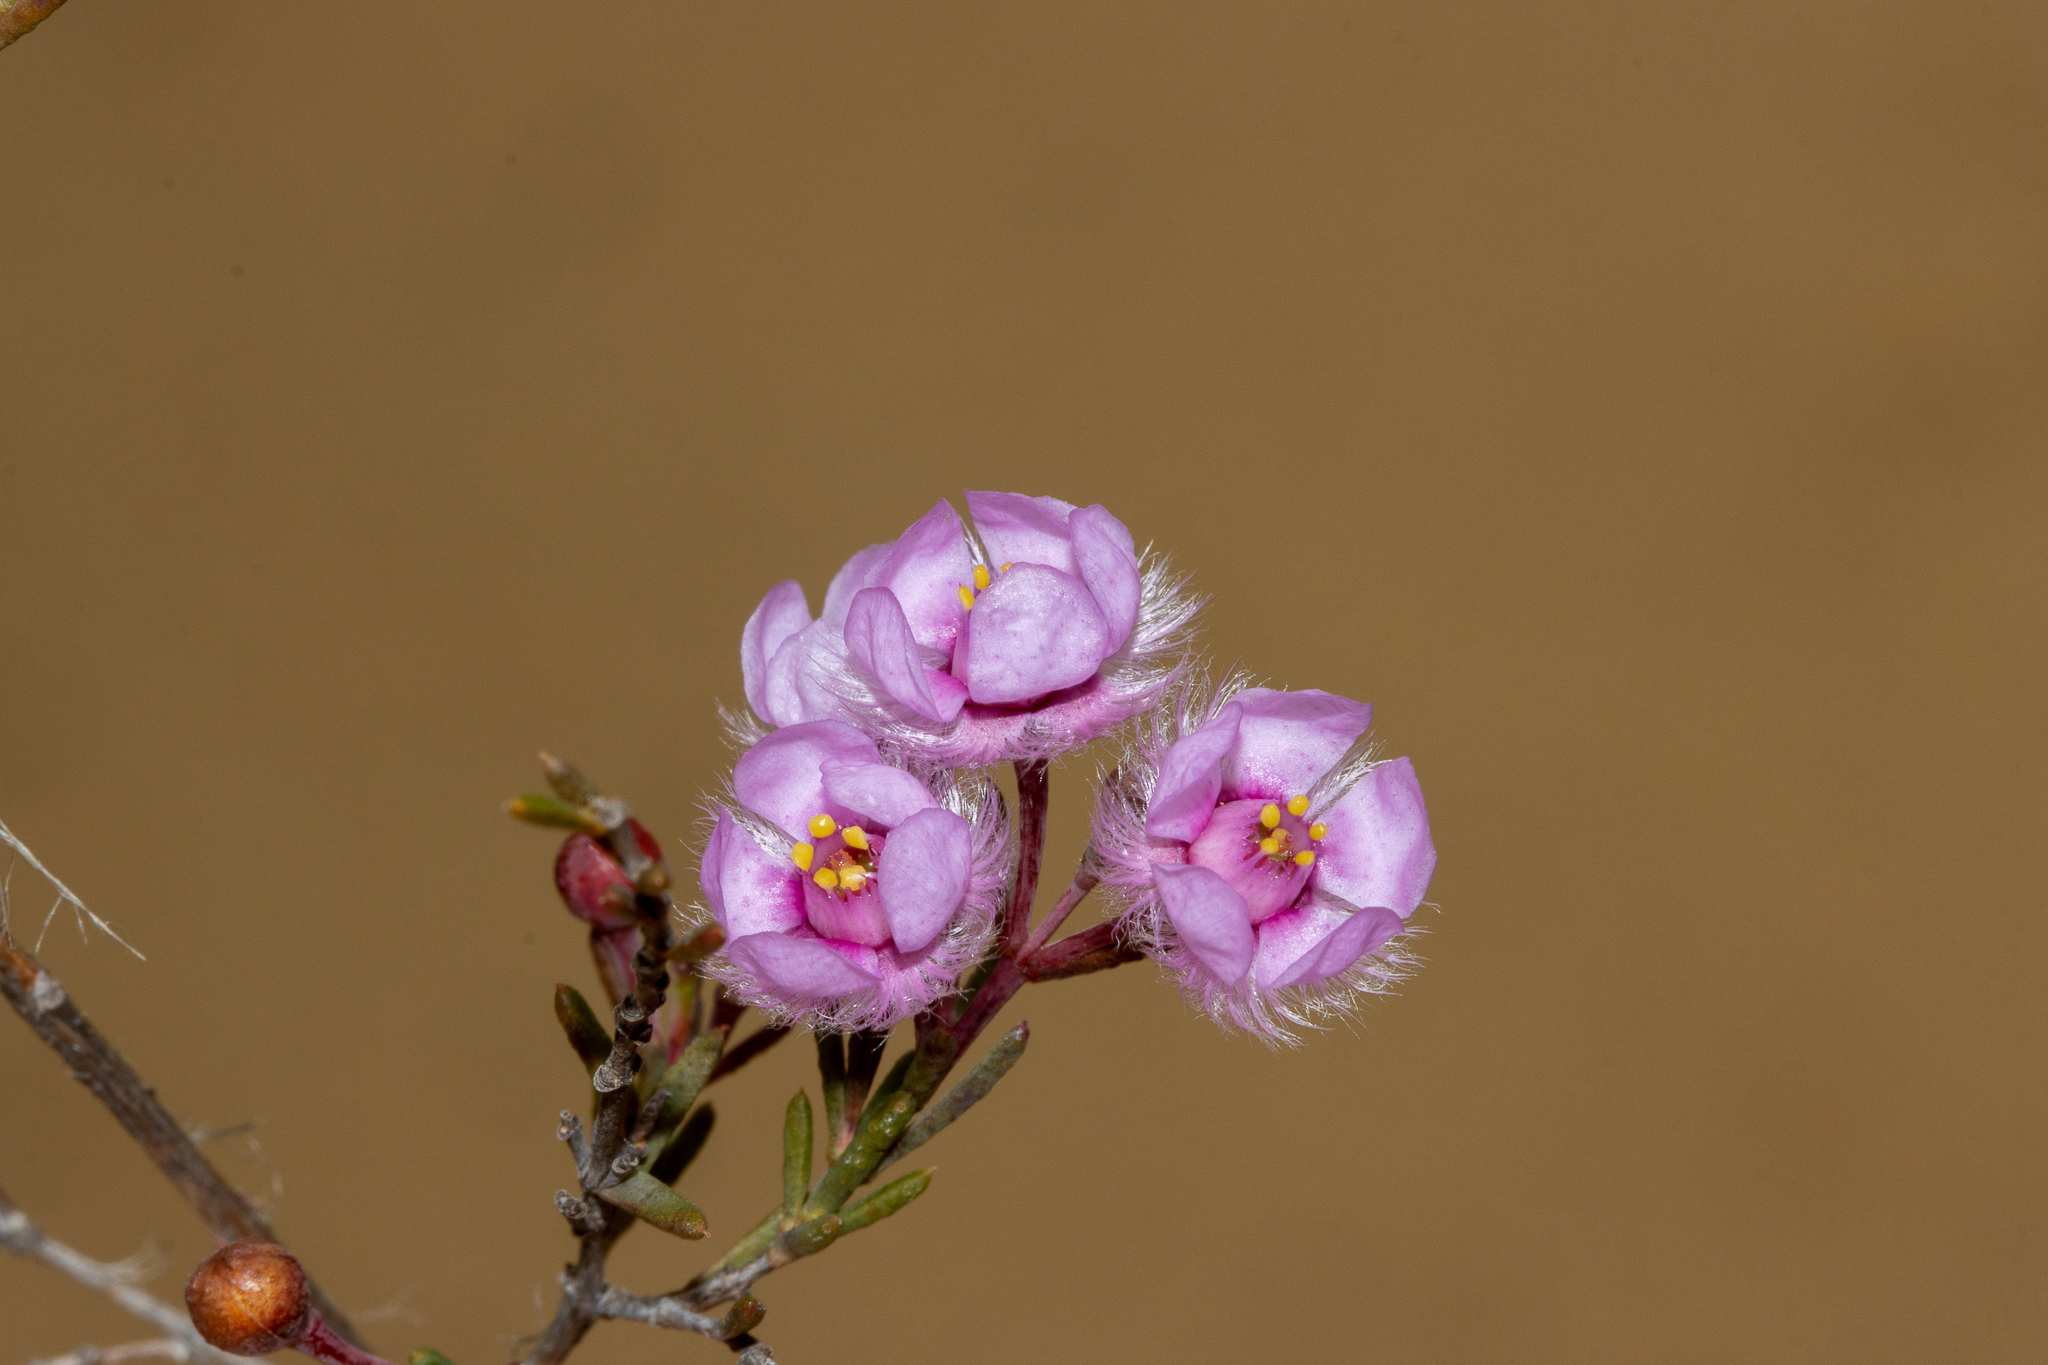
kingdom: Plantae
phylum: Tracheophyta
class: Magnoliopsida
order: Myrtales
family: Myrtaceae
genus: Verticordia
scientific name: Verticordia picta
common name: Painted feather-flower
